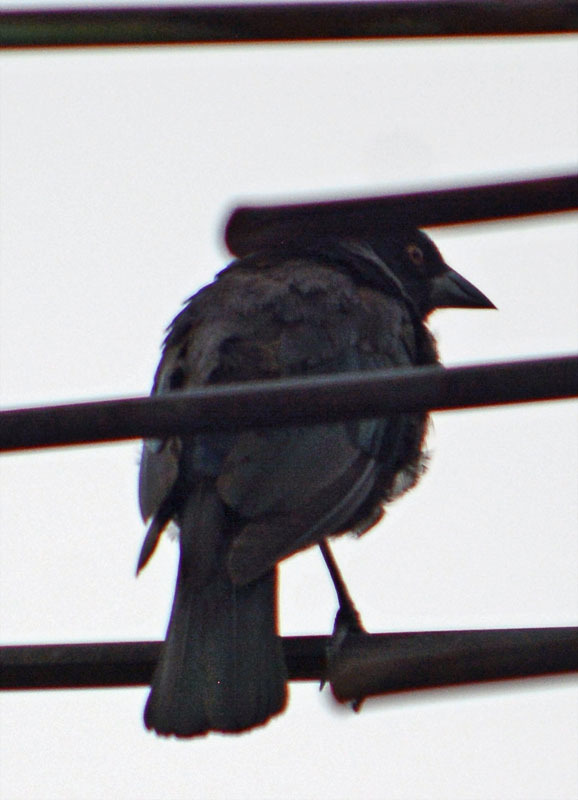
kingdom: Animalia
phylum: Chordata
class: Aves
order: Passeriformes
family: Icteridae
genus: Molothrus
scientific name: Molothrus aeneus
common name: Bronzed cowbird
